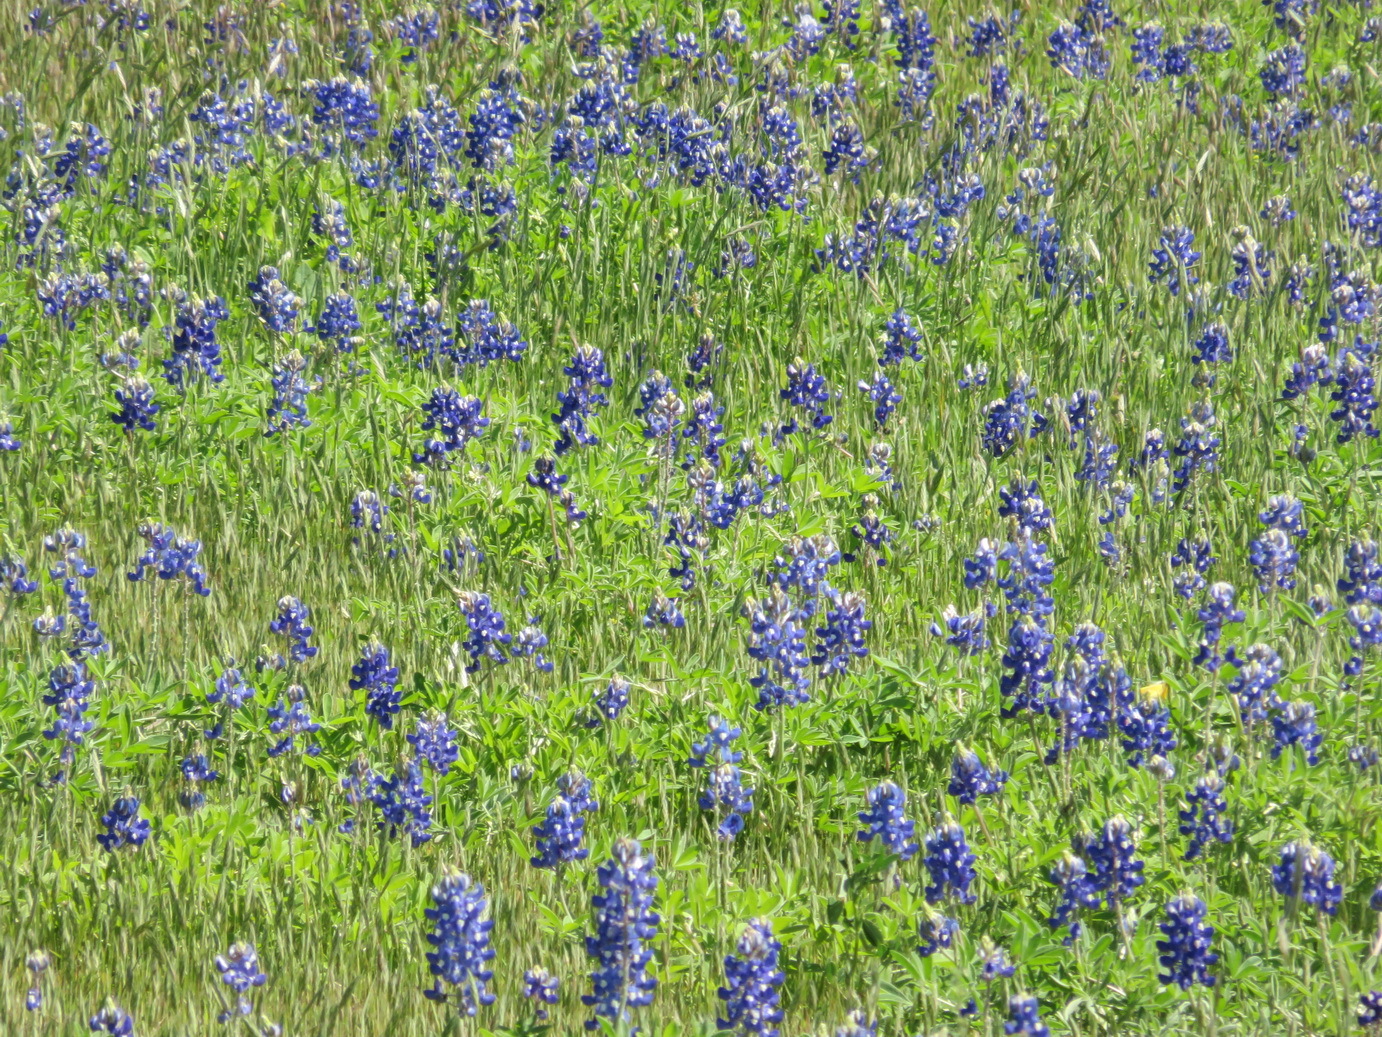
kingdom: Plantae
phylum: Tracheophyta
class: Magnoliopsida
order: Fabales
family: Fabaceae
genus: Lupinus
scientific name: Lupinus texensis
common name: Texas bluebonnet
